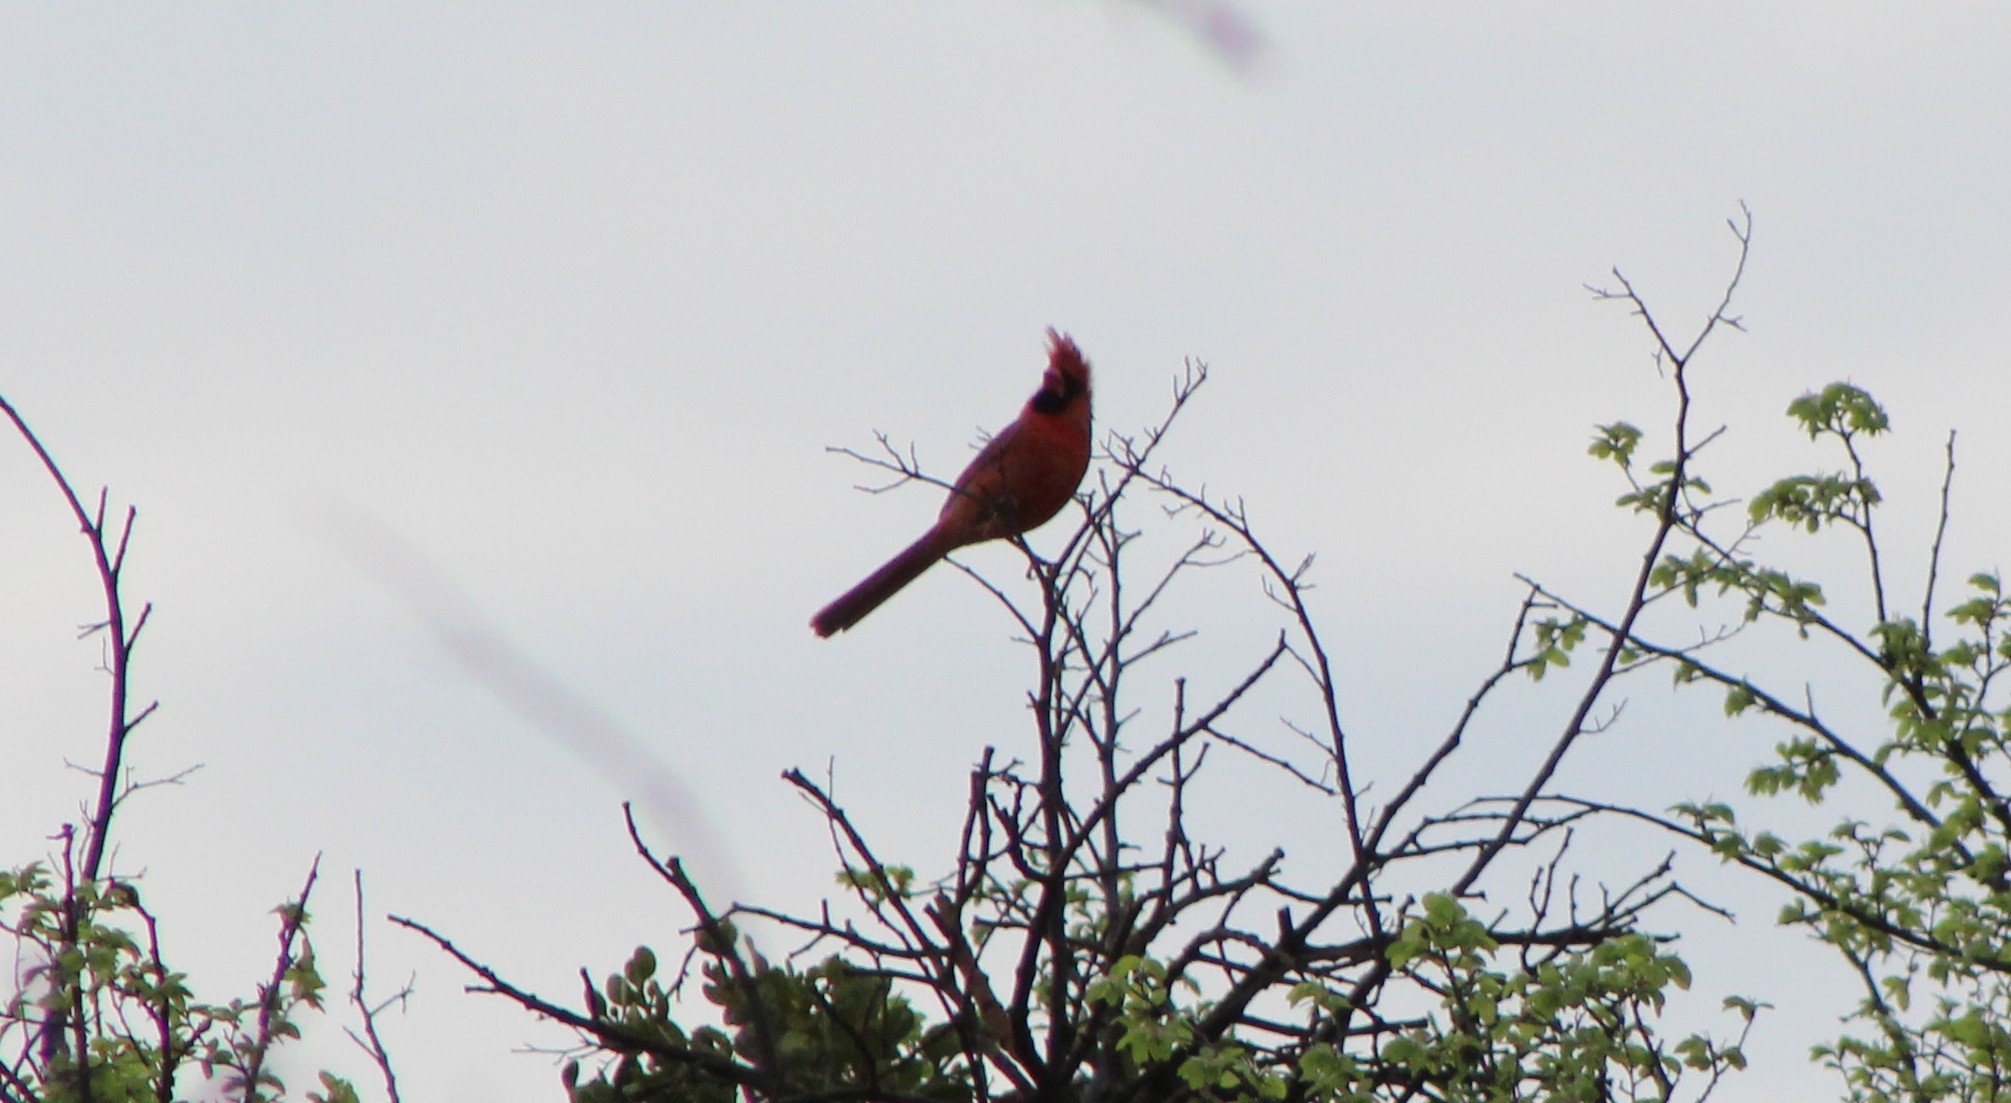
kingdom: Animalia
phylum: Chordata
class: Aves
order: Passeriformes
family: Cardinalidae
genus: Cardinalis
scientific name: Cardinalis cardinalis
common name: Northern cardinal
